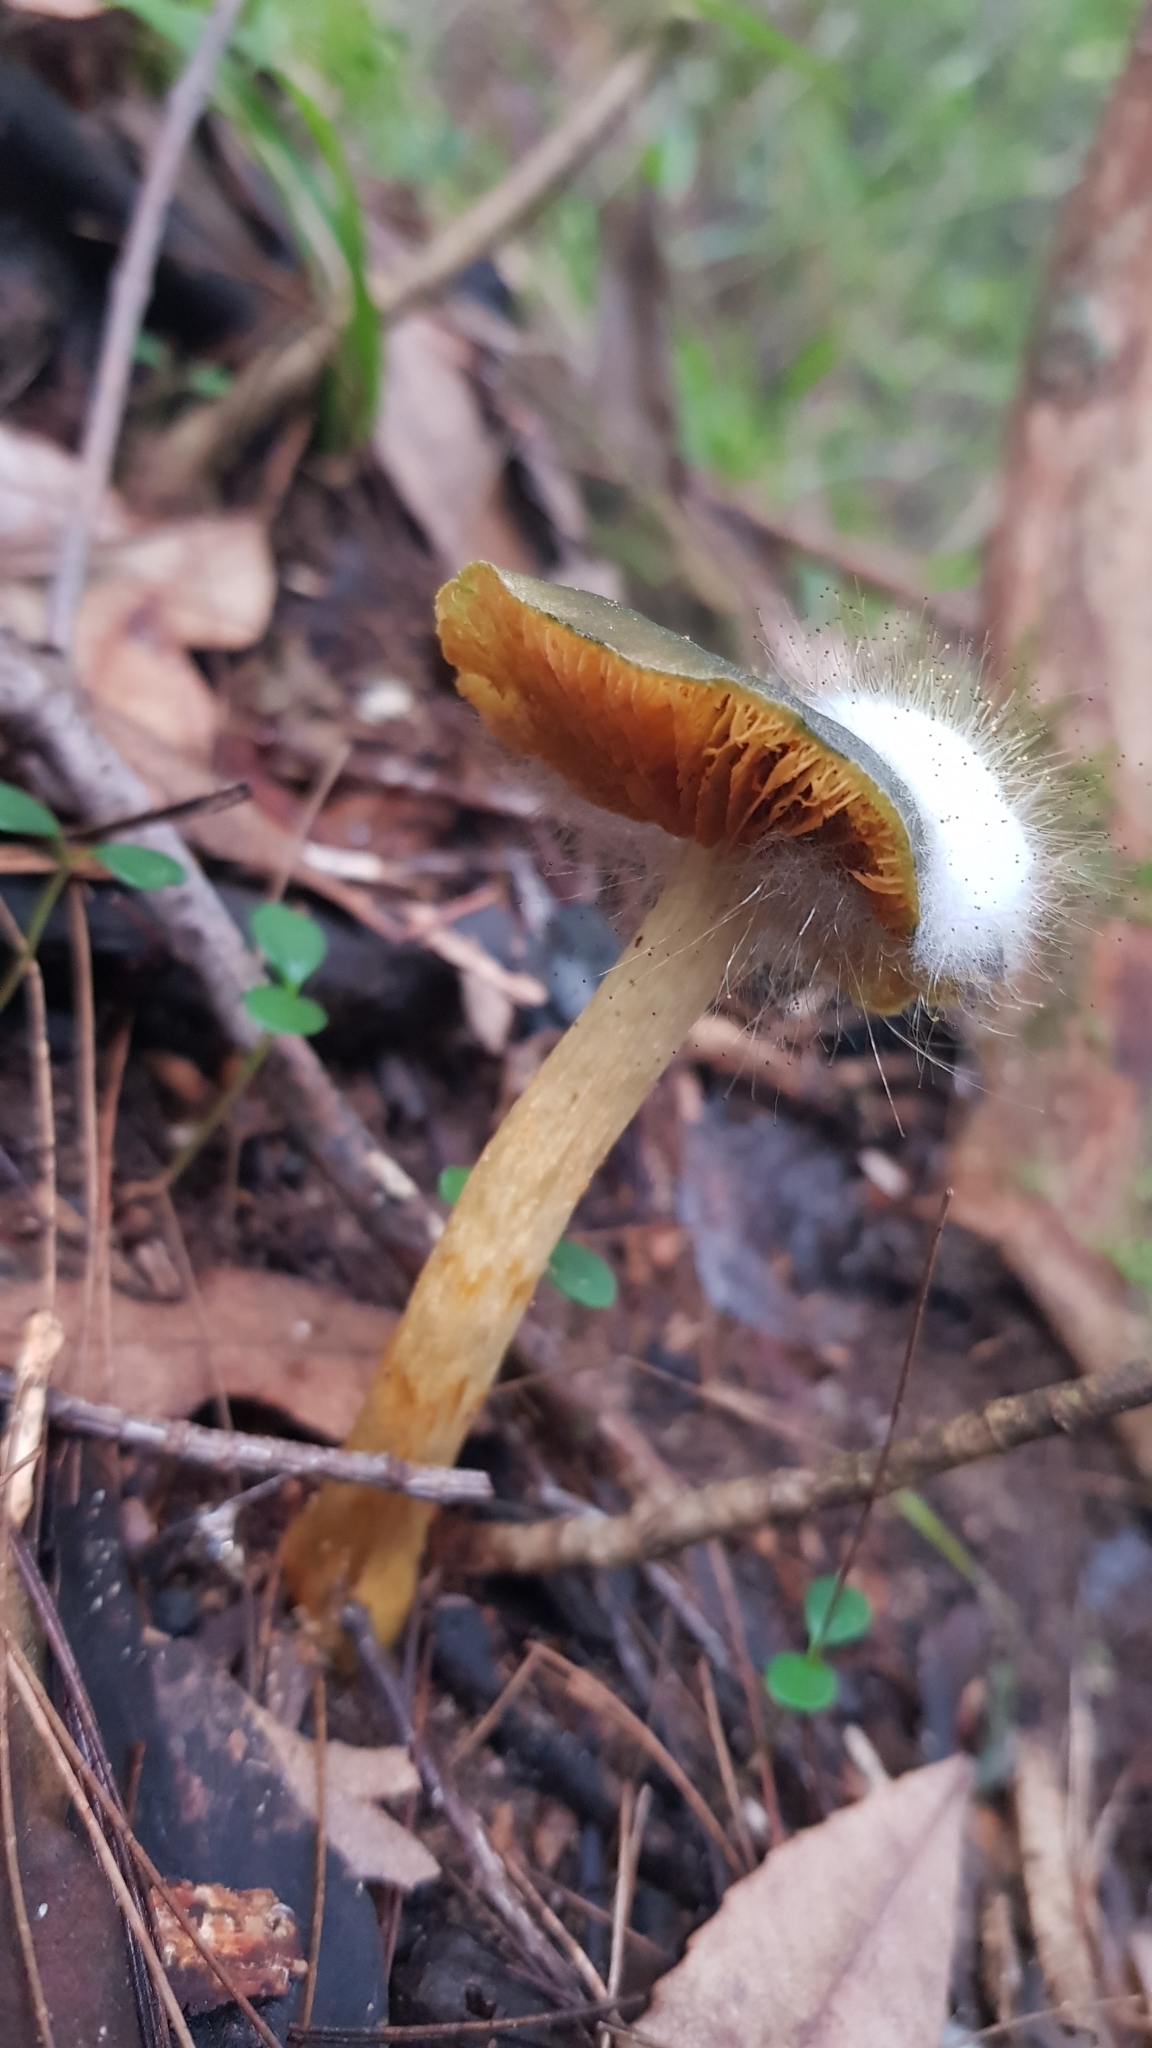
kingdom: Fungi
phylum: Basidiomycota
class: Agaricomycetes
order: Agaricales
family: Cortinariaceae
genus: Cortinarius
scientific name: Cortinarius austrovenetus
